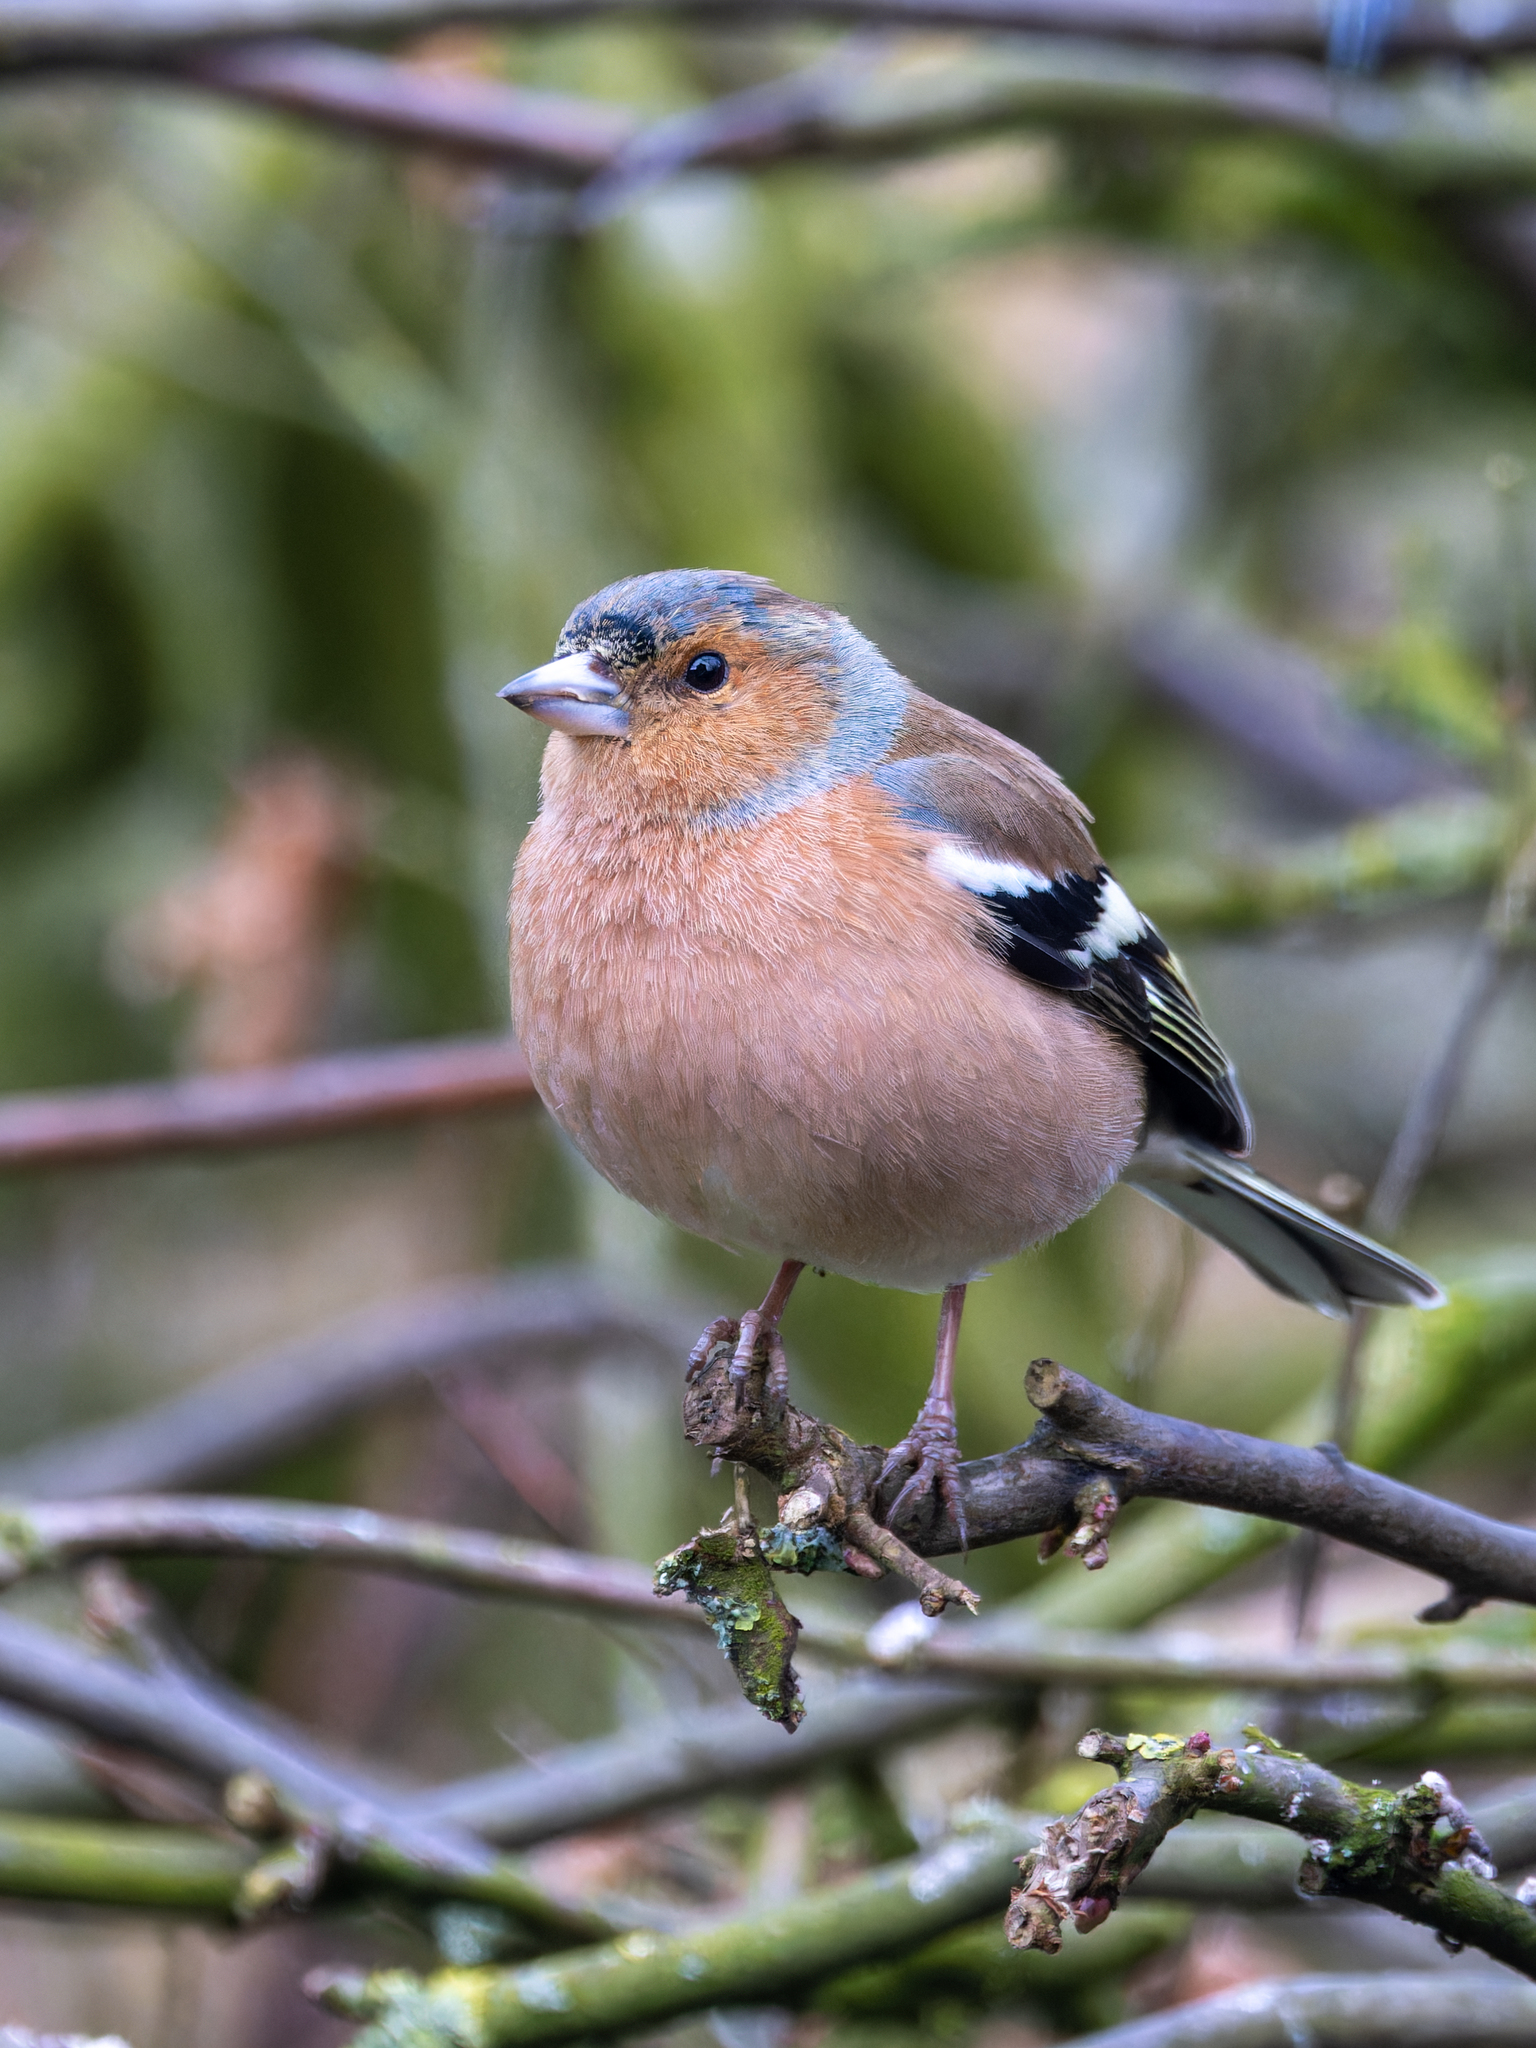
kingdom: Animalia
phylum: Chordata
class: Aves
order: Passeriformes
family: Fringillidae
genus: Fringilla
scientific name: Fringilla coelebs
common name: Common chaffinch
